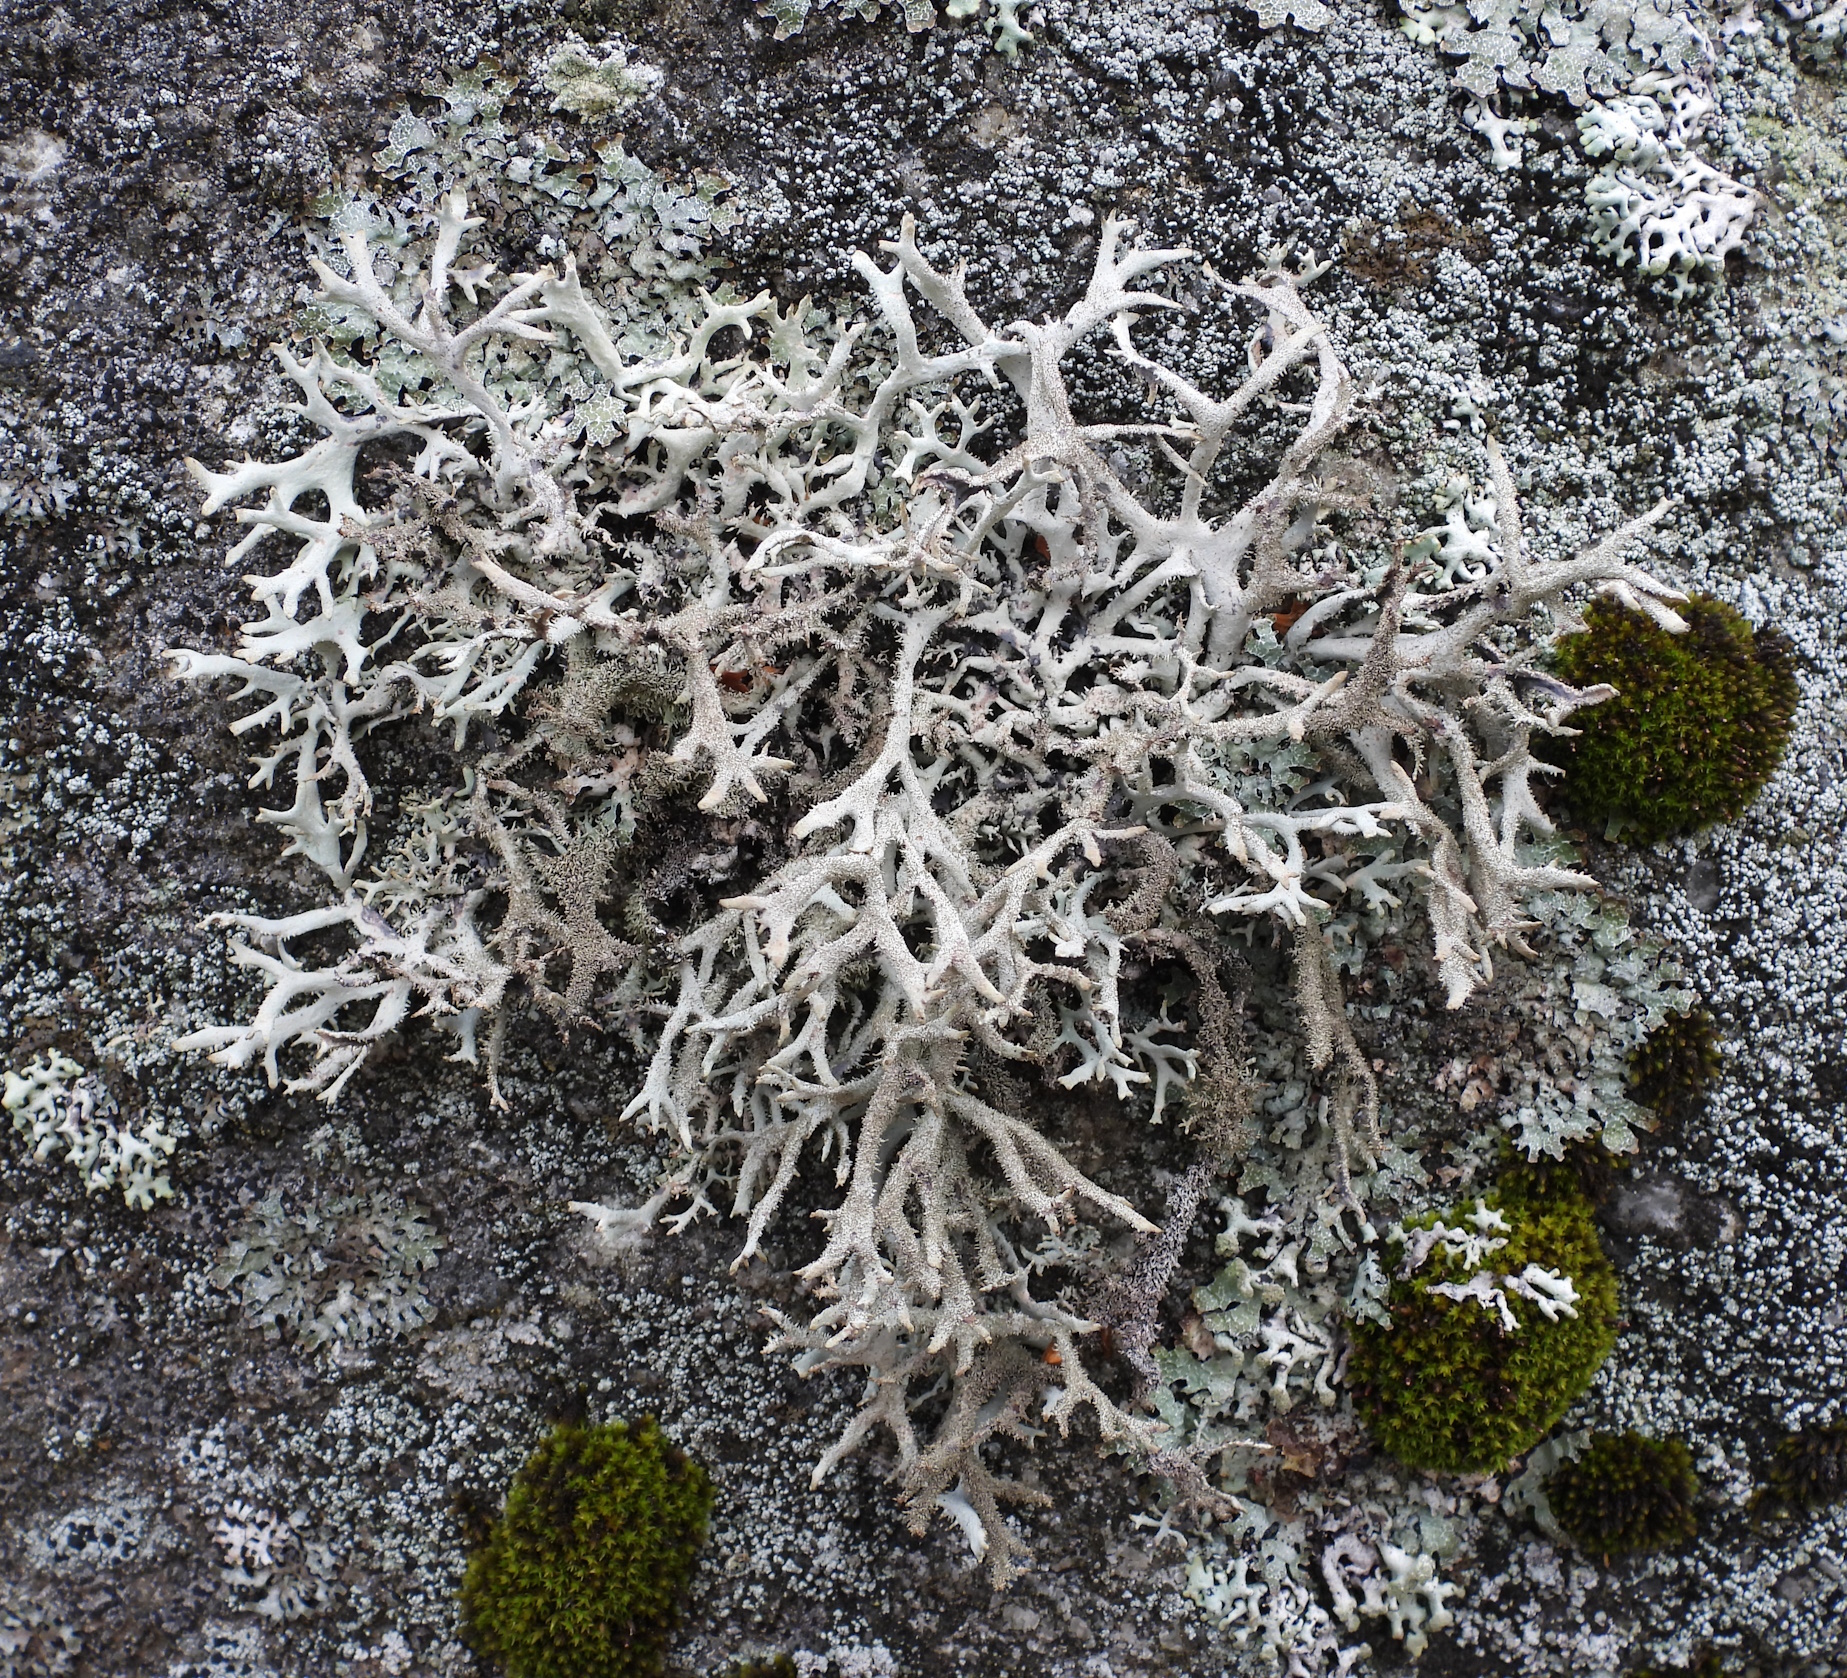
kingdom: Fungi
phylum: Ascomycota
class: Lecanoromycetes
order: Lecanorales
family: Parmeliaceae
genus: Pseudevernia
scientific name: Pseudevernia furfuracea
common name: Tree moss
